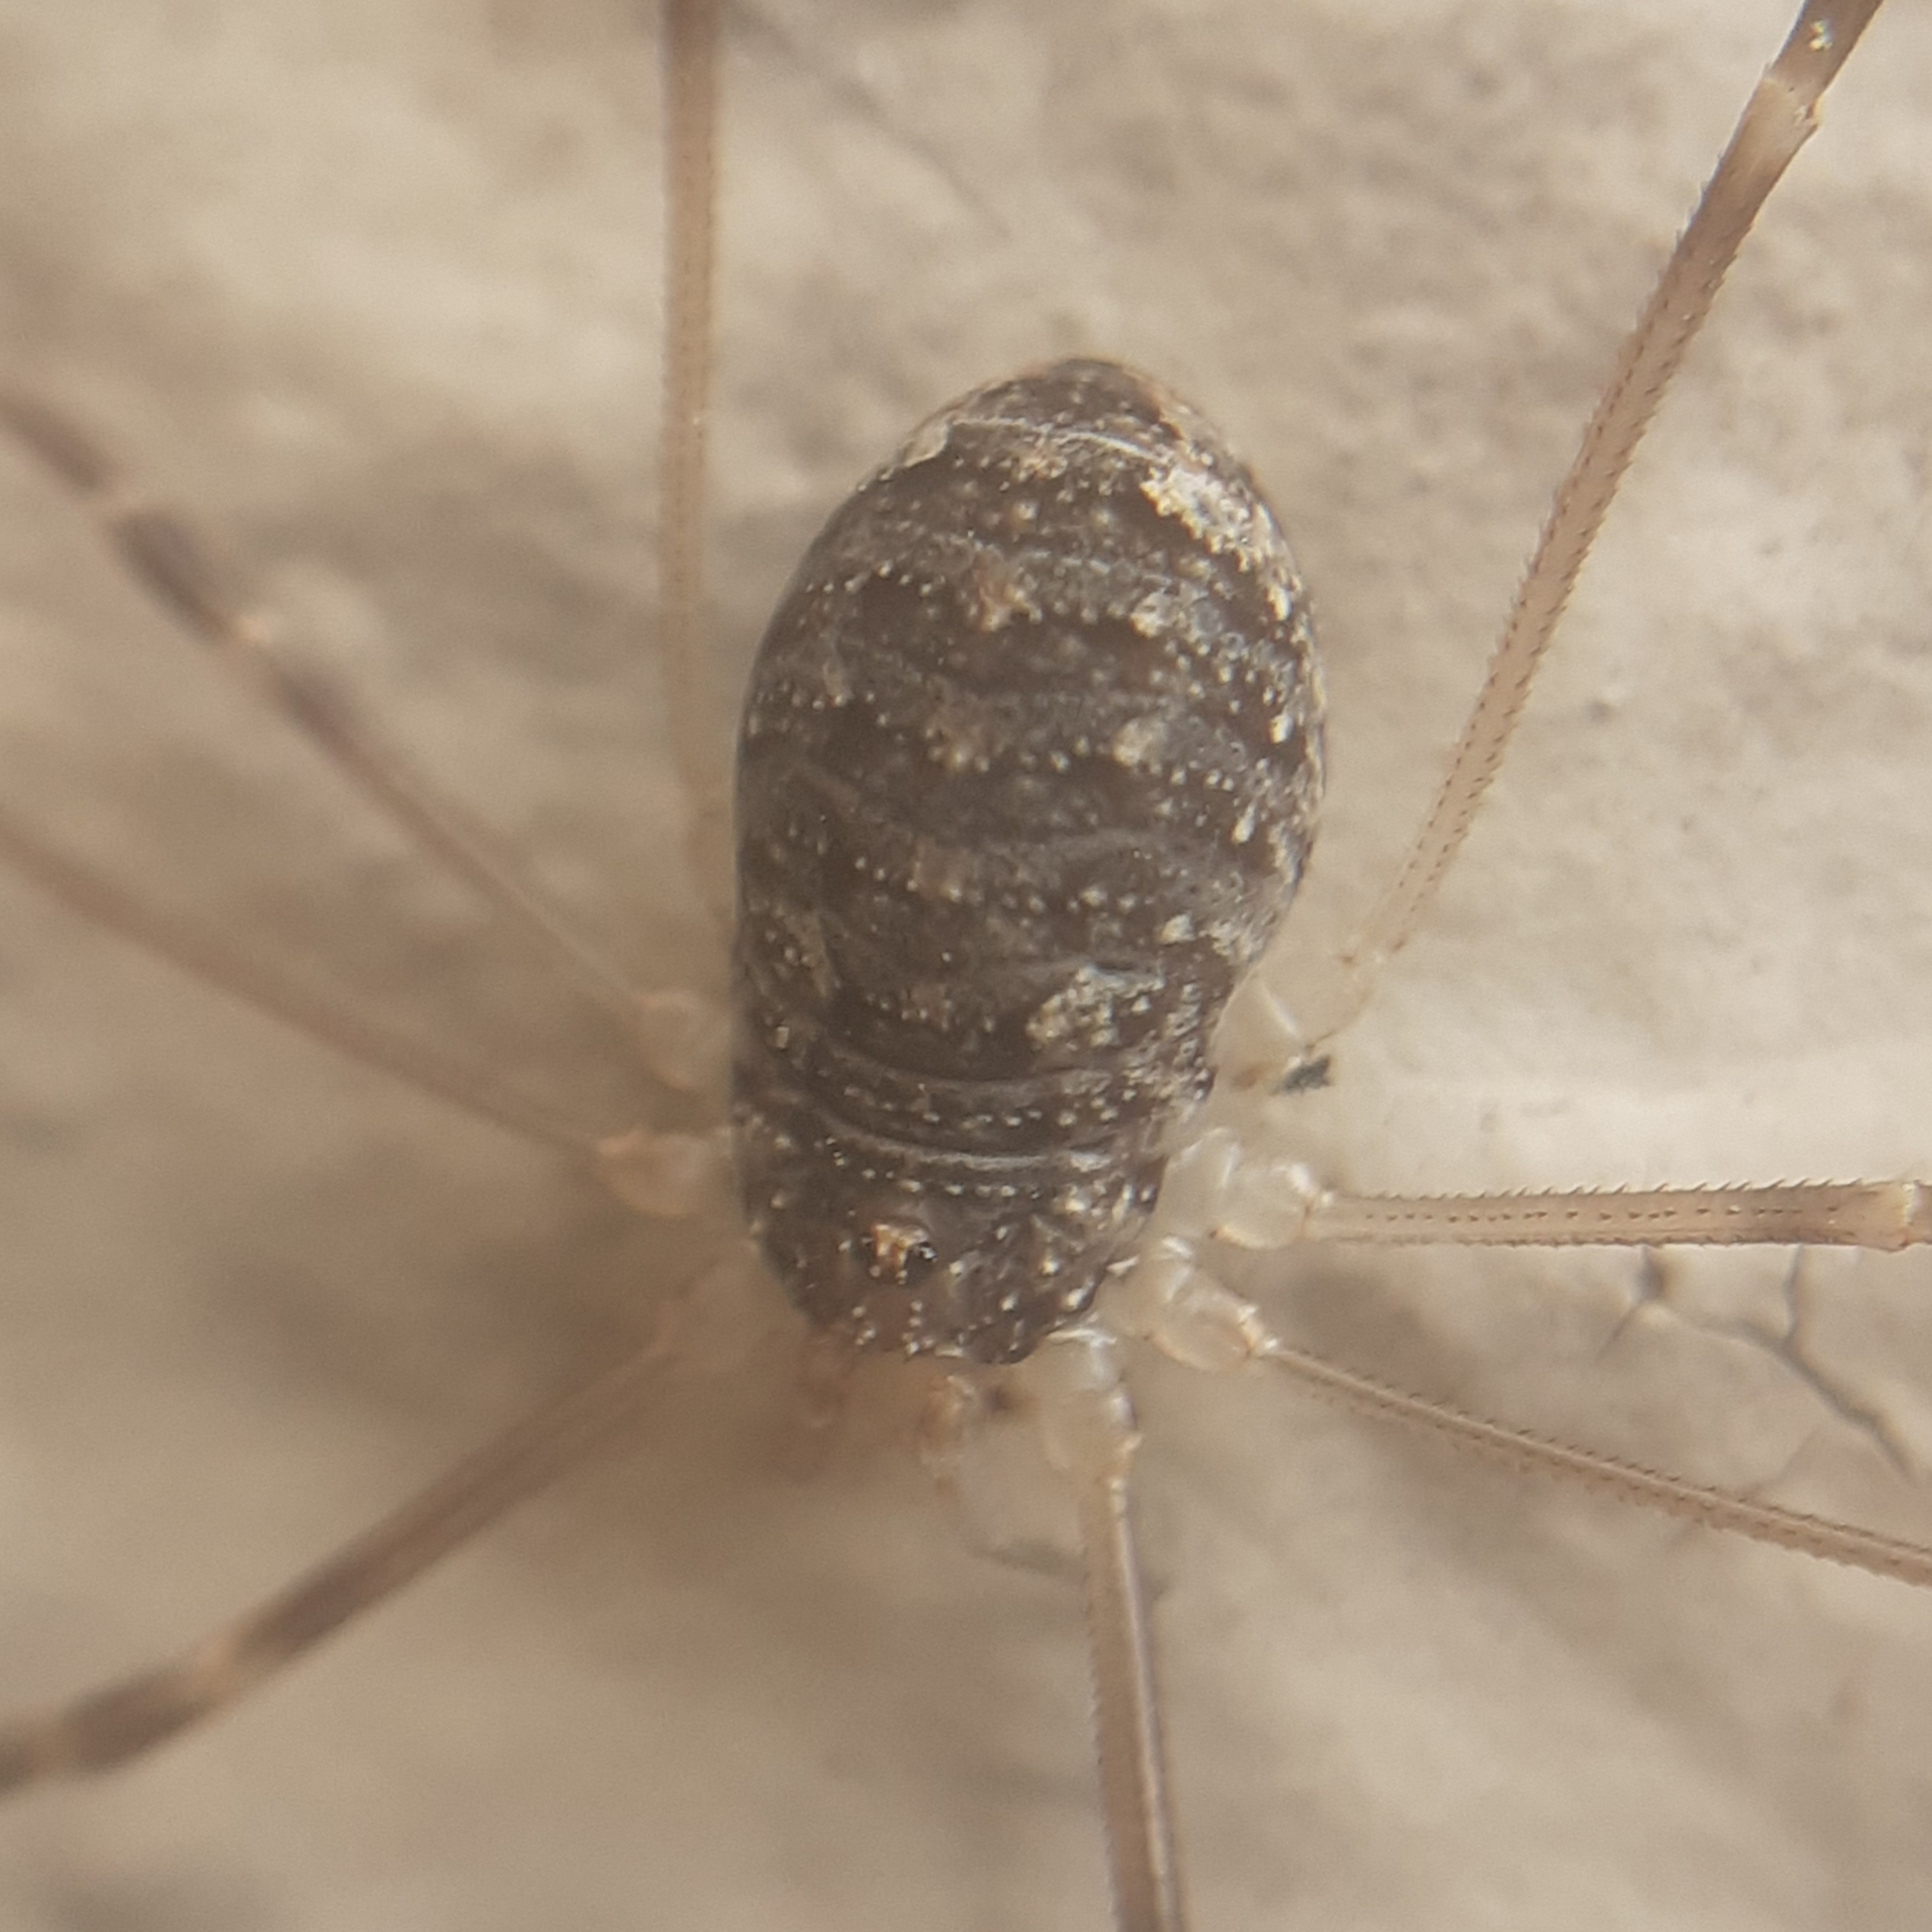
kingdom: Animalia
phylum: Arthropoda
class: Arachnida
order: Opiliones
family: Phalangiidae
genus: Opilio
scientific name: Opilio saxatilis
